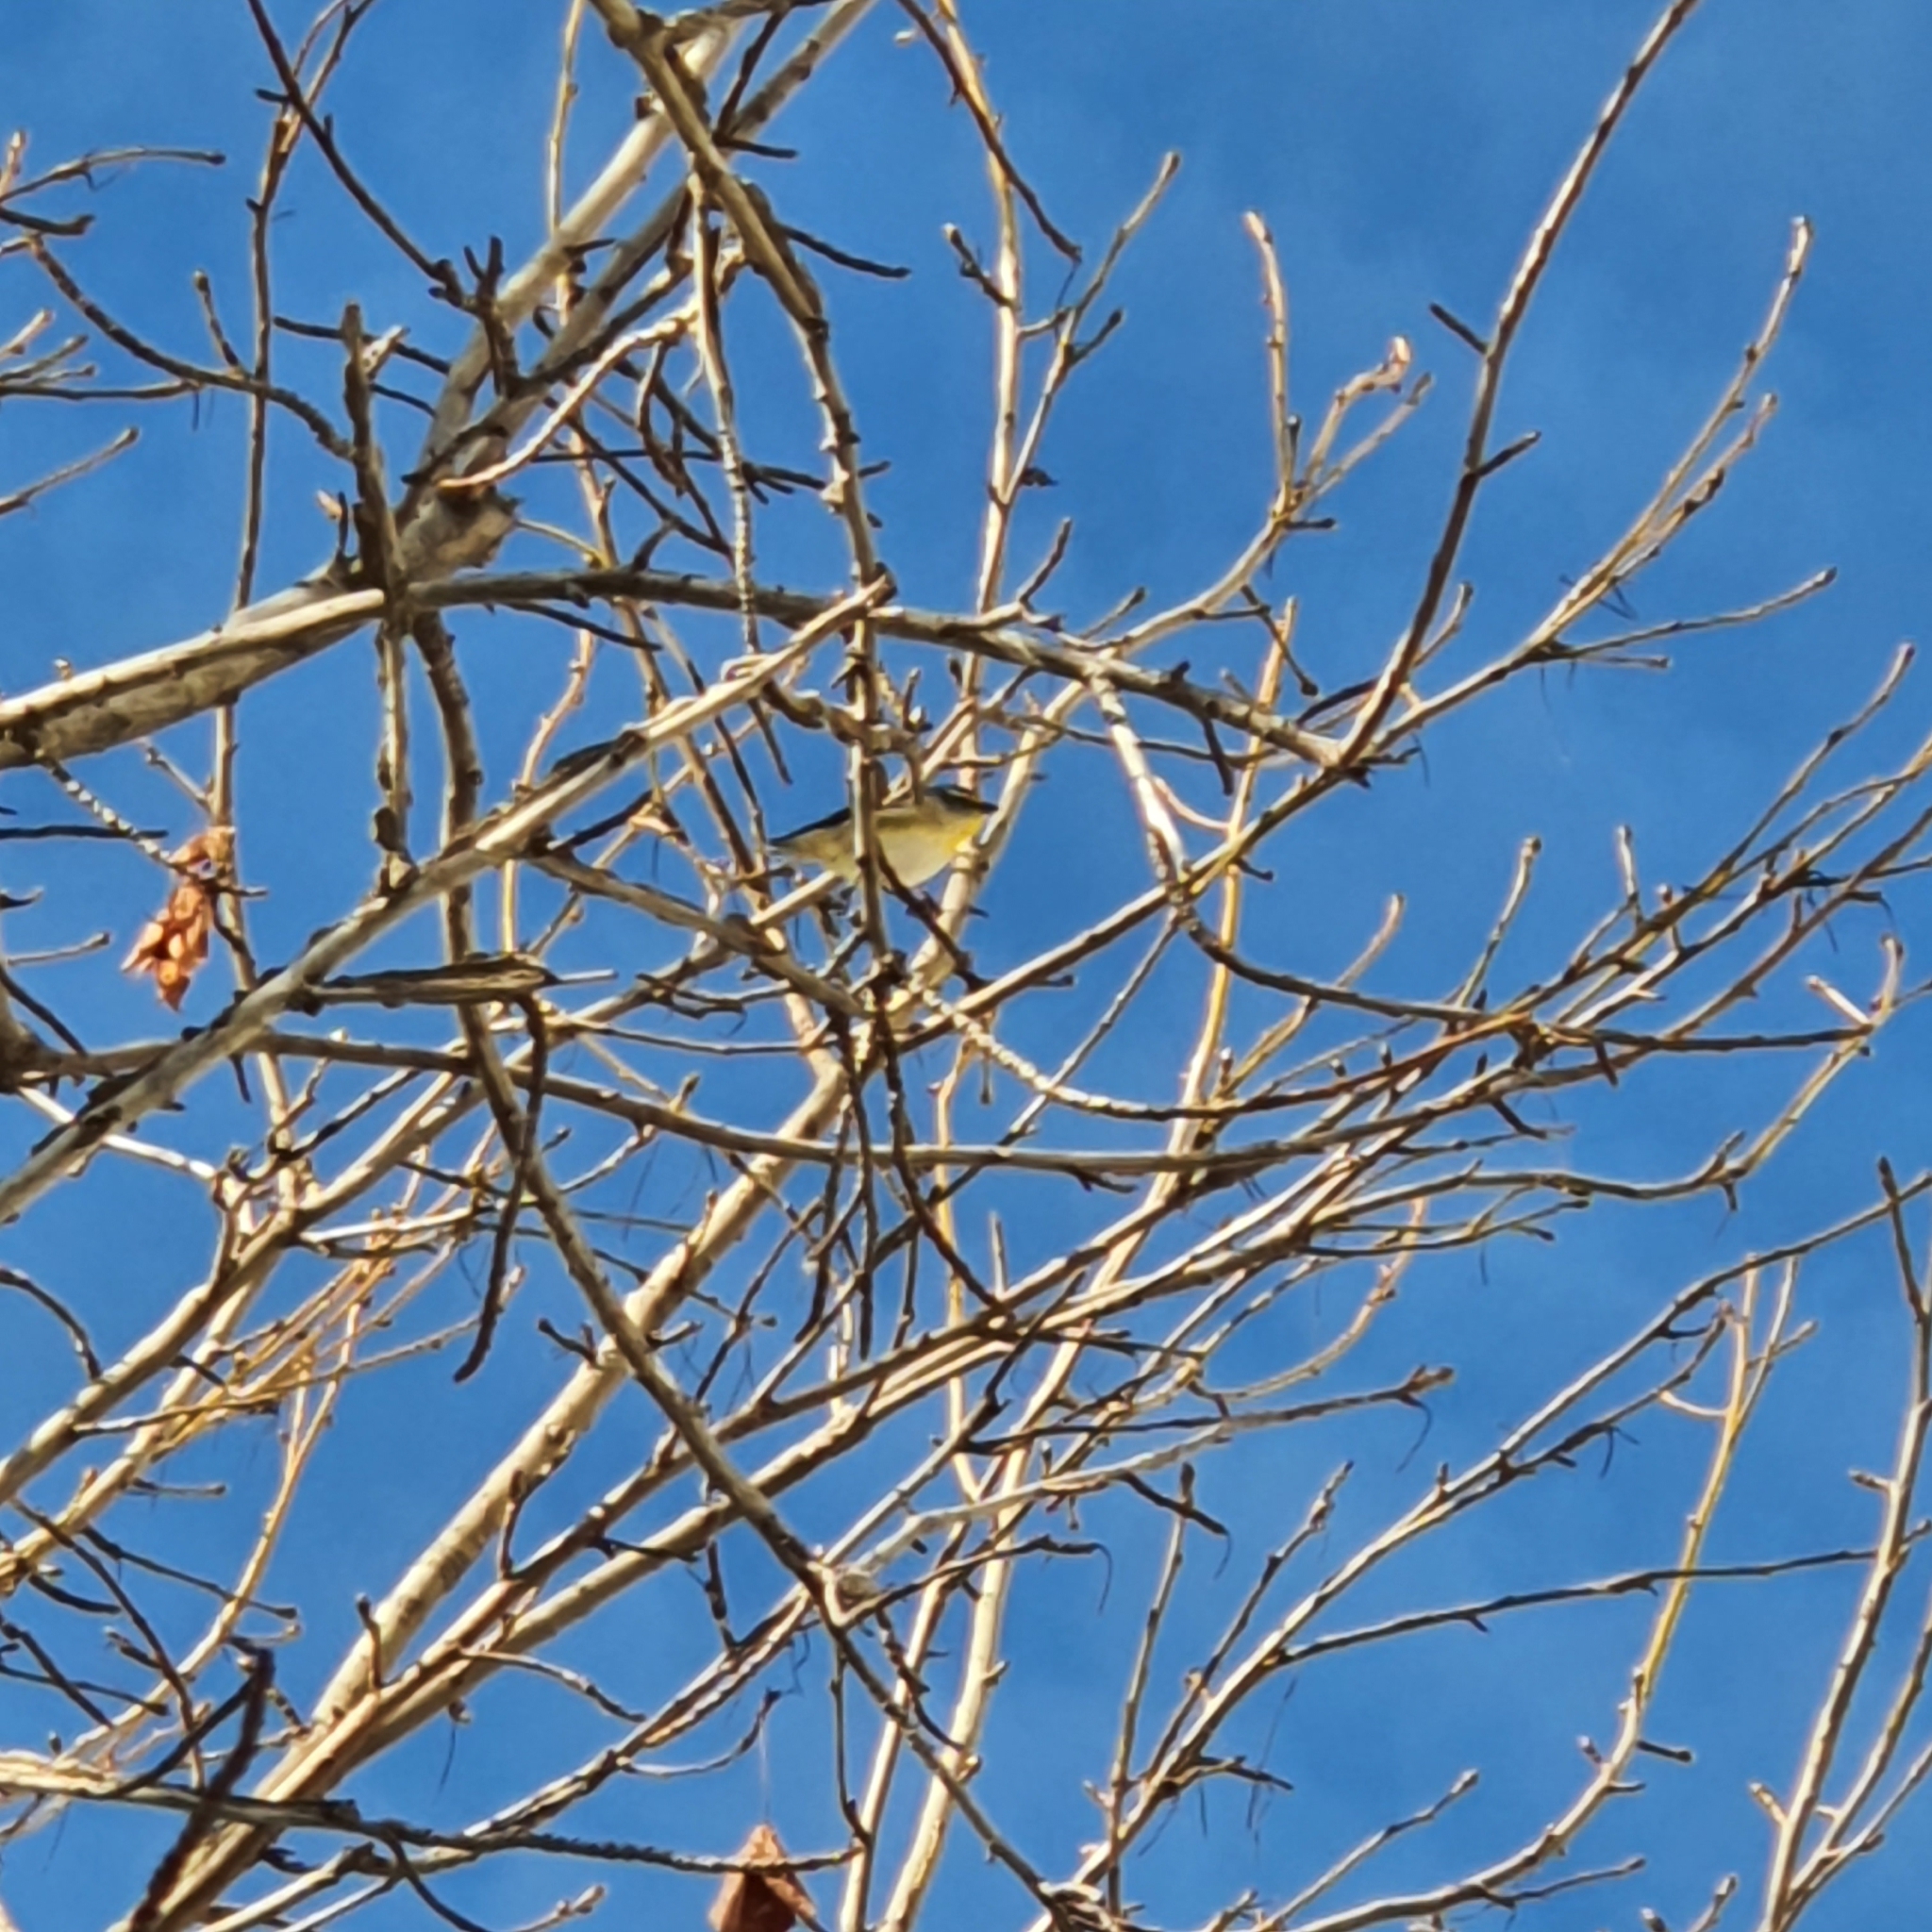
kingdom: Animalia
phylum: Chordata
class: Aves
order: Passeriformes
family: Pardalotidae
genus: Pardalotus
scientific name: Pardalotus striatus
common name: Striated pardalote
